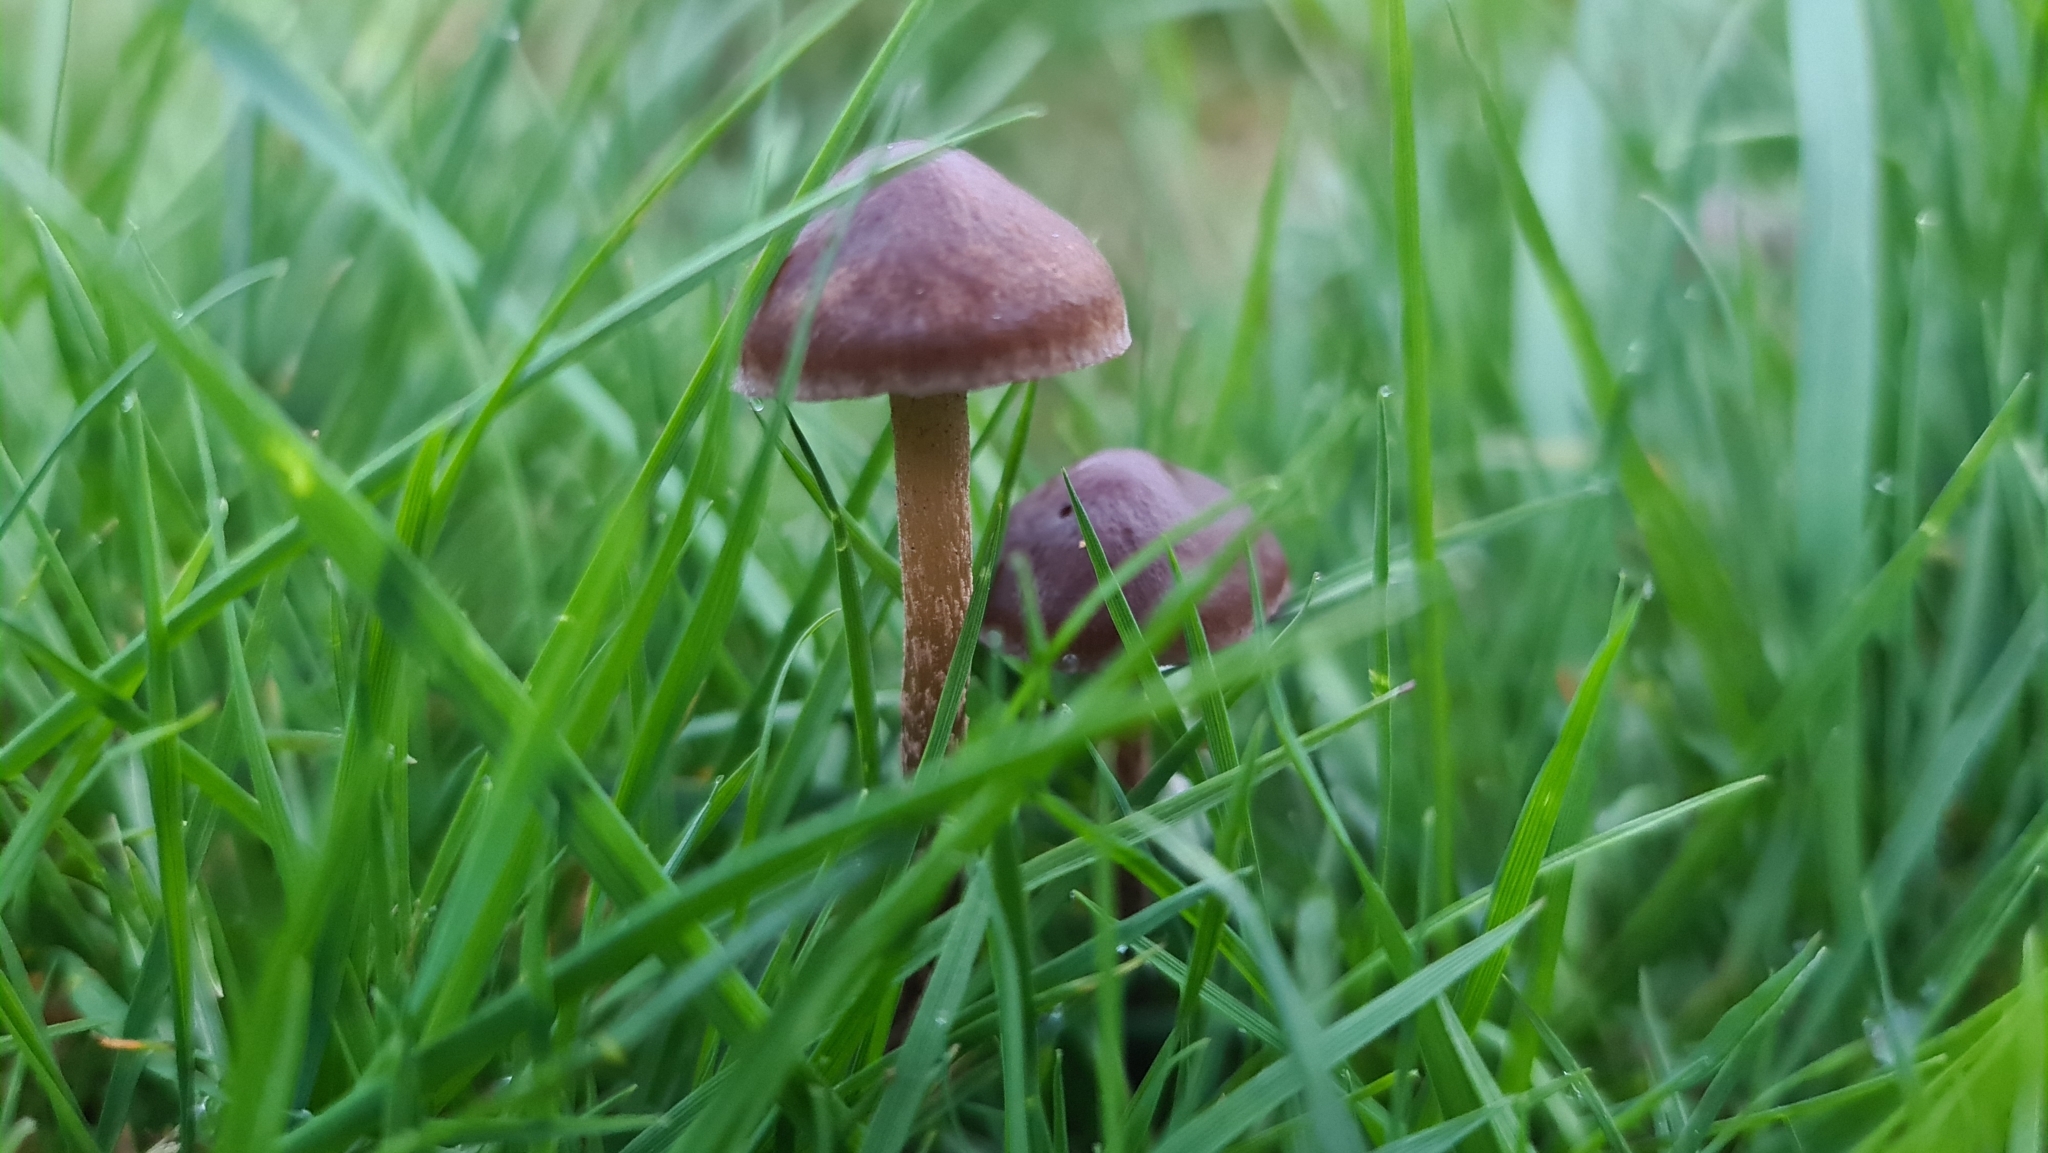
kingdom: Fungi
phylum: Basidiomycota
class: Agaricomycetes
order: Agaricales
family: Bolbitiaceae
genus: Panaeolina
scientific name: Panaeolina foenisecii
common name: Brown hay cap
